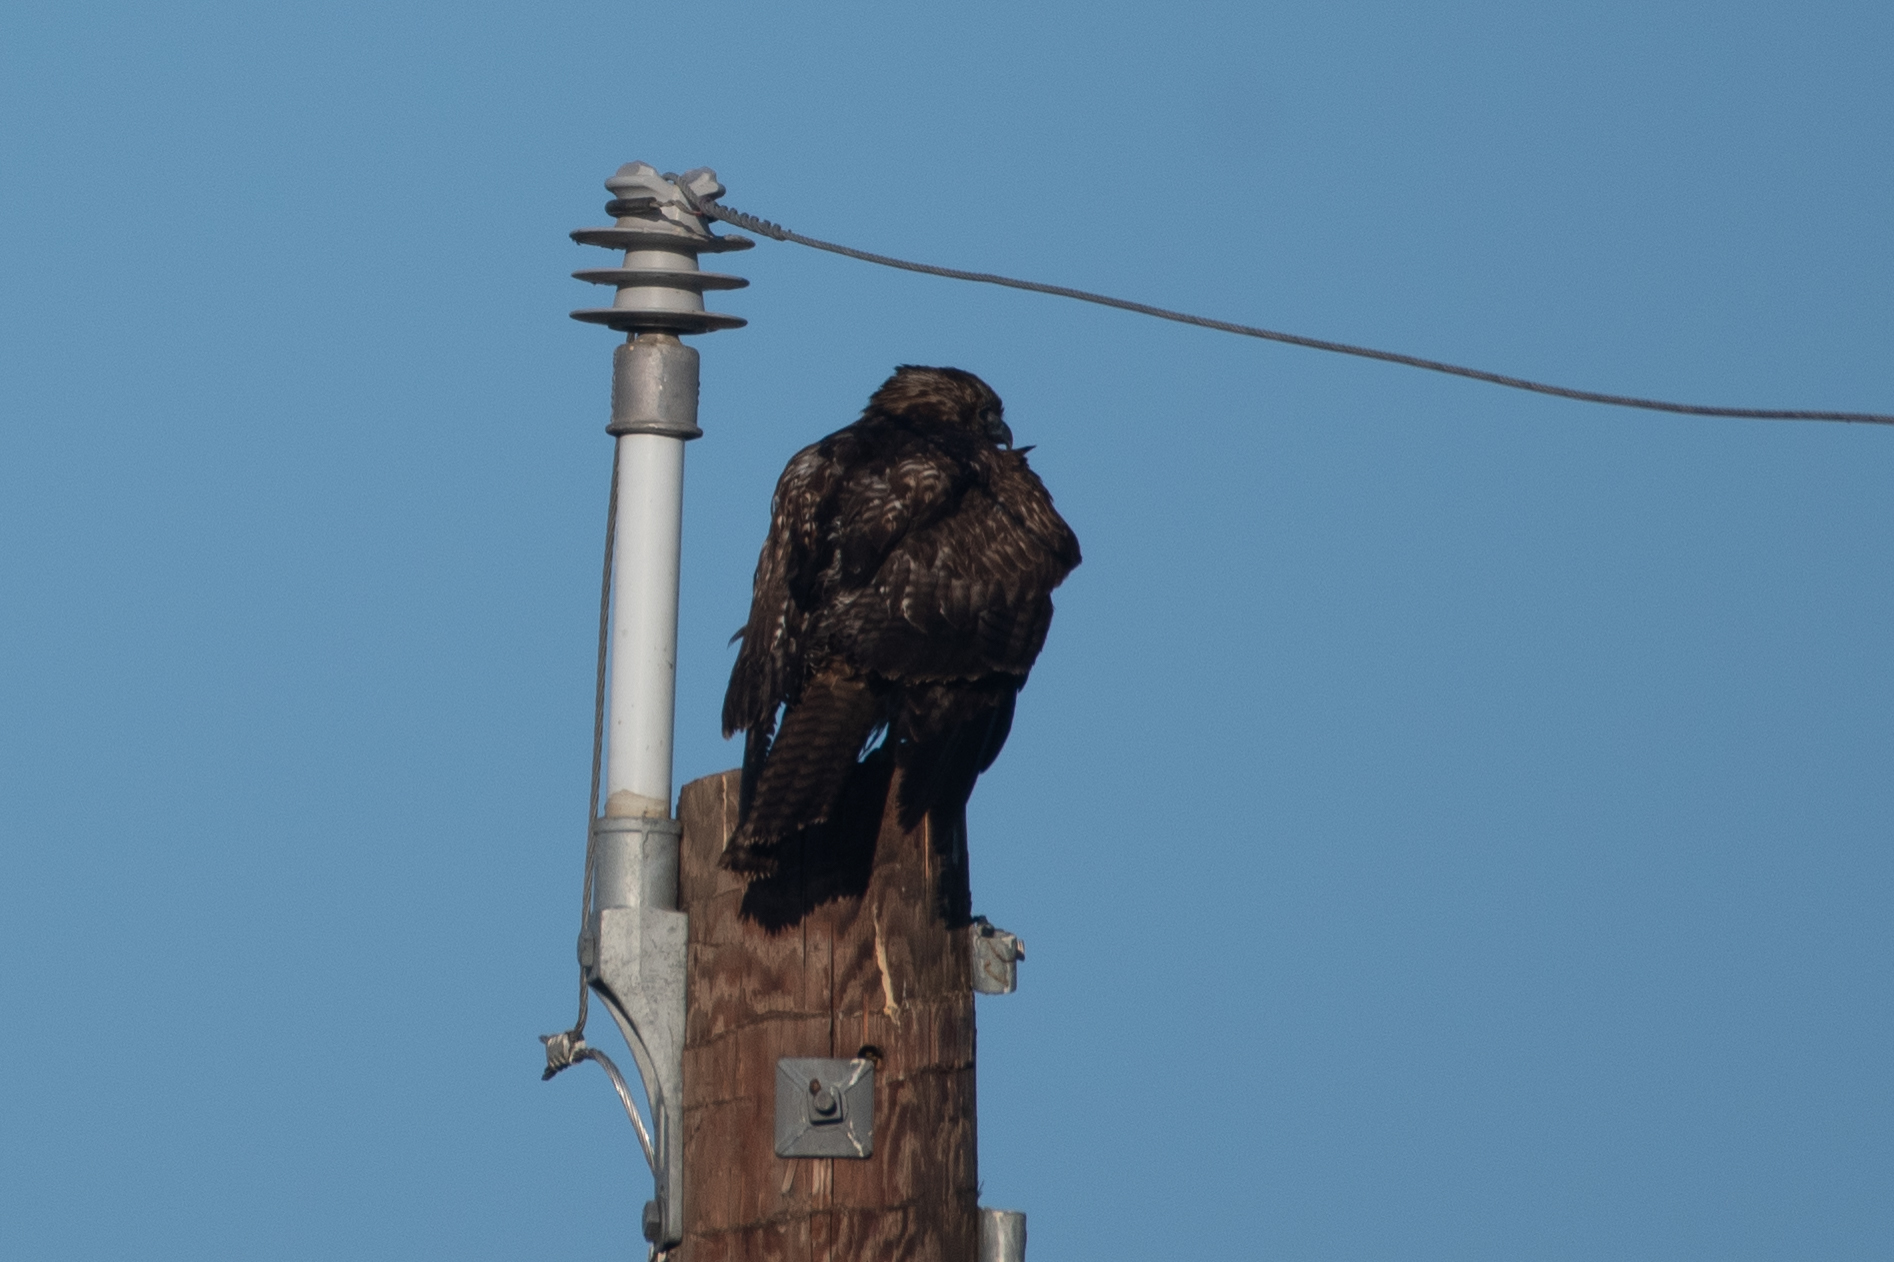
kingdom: Animalia
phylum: Chordata
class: Aves
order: Accipitriformes
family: Accipitridae
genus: Buteo
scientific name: Buteo jamaicensis
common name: Red-tailed hawk
